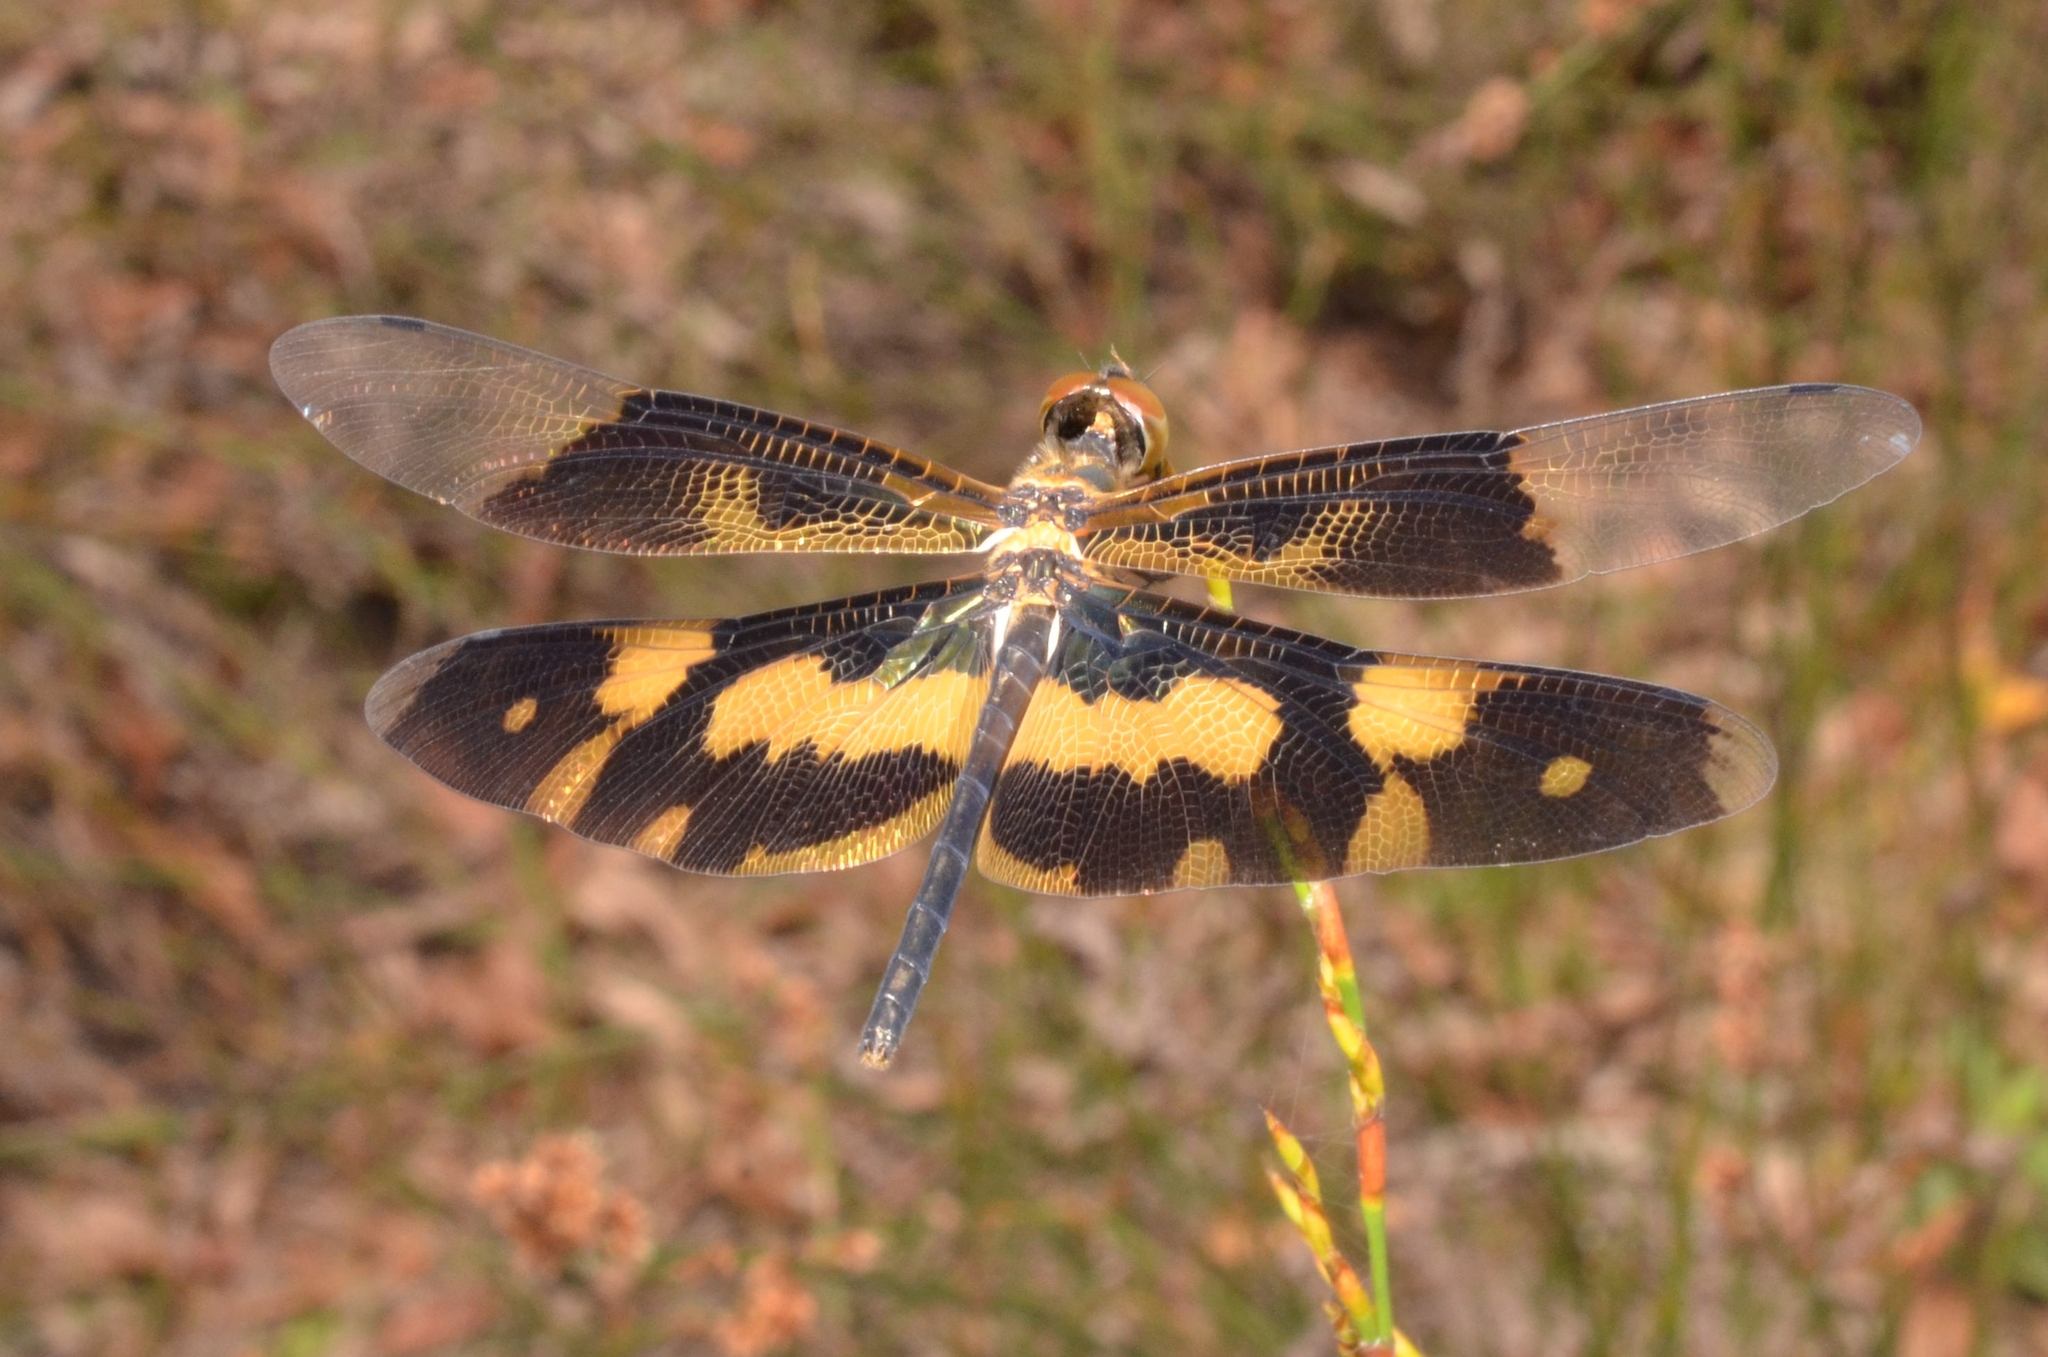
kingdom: Animalia
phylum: Arthropoda
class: Insecta
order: Odonata
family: Libellulidae
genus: Rhyothemis
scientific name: Rhyothemis variegata
